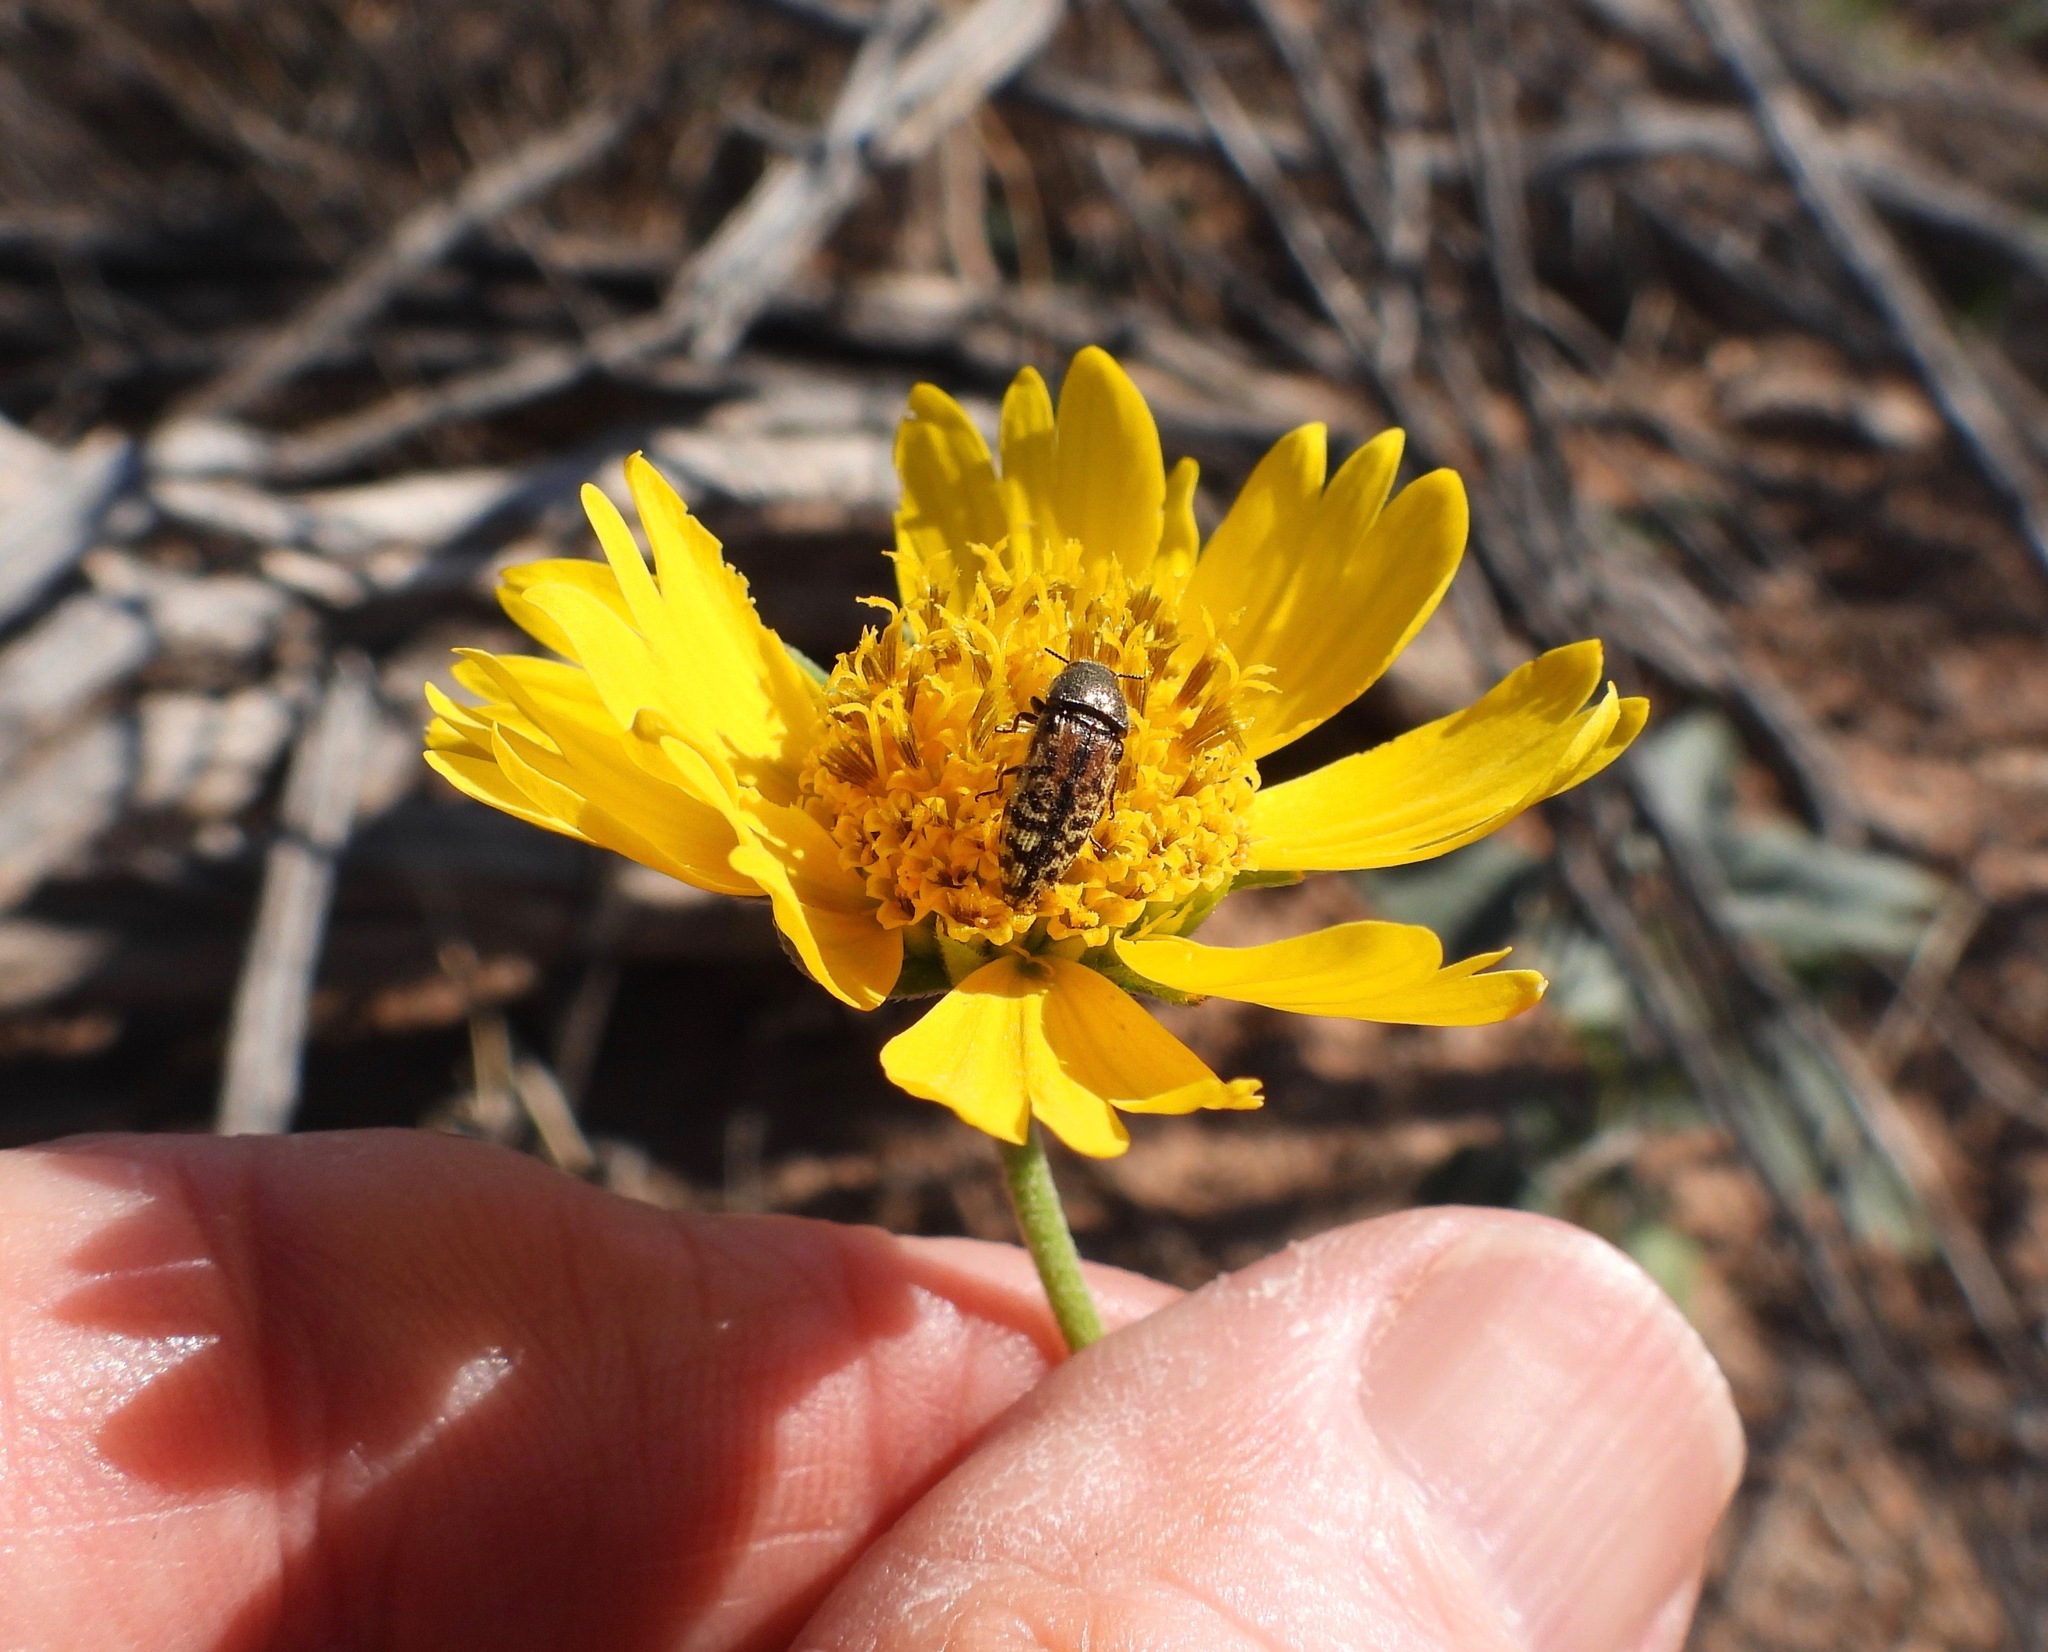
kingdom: Animalia
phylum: Arthropoda
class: Insecta
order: Coleoptera
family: Buprestidae
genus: Acmaeodera
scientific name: Acmaeodera mixta
